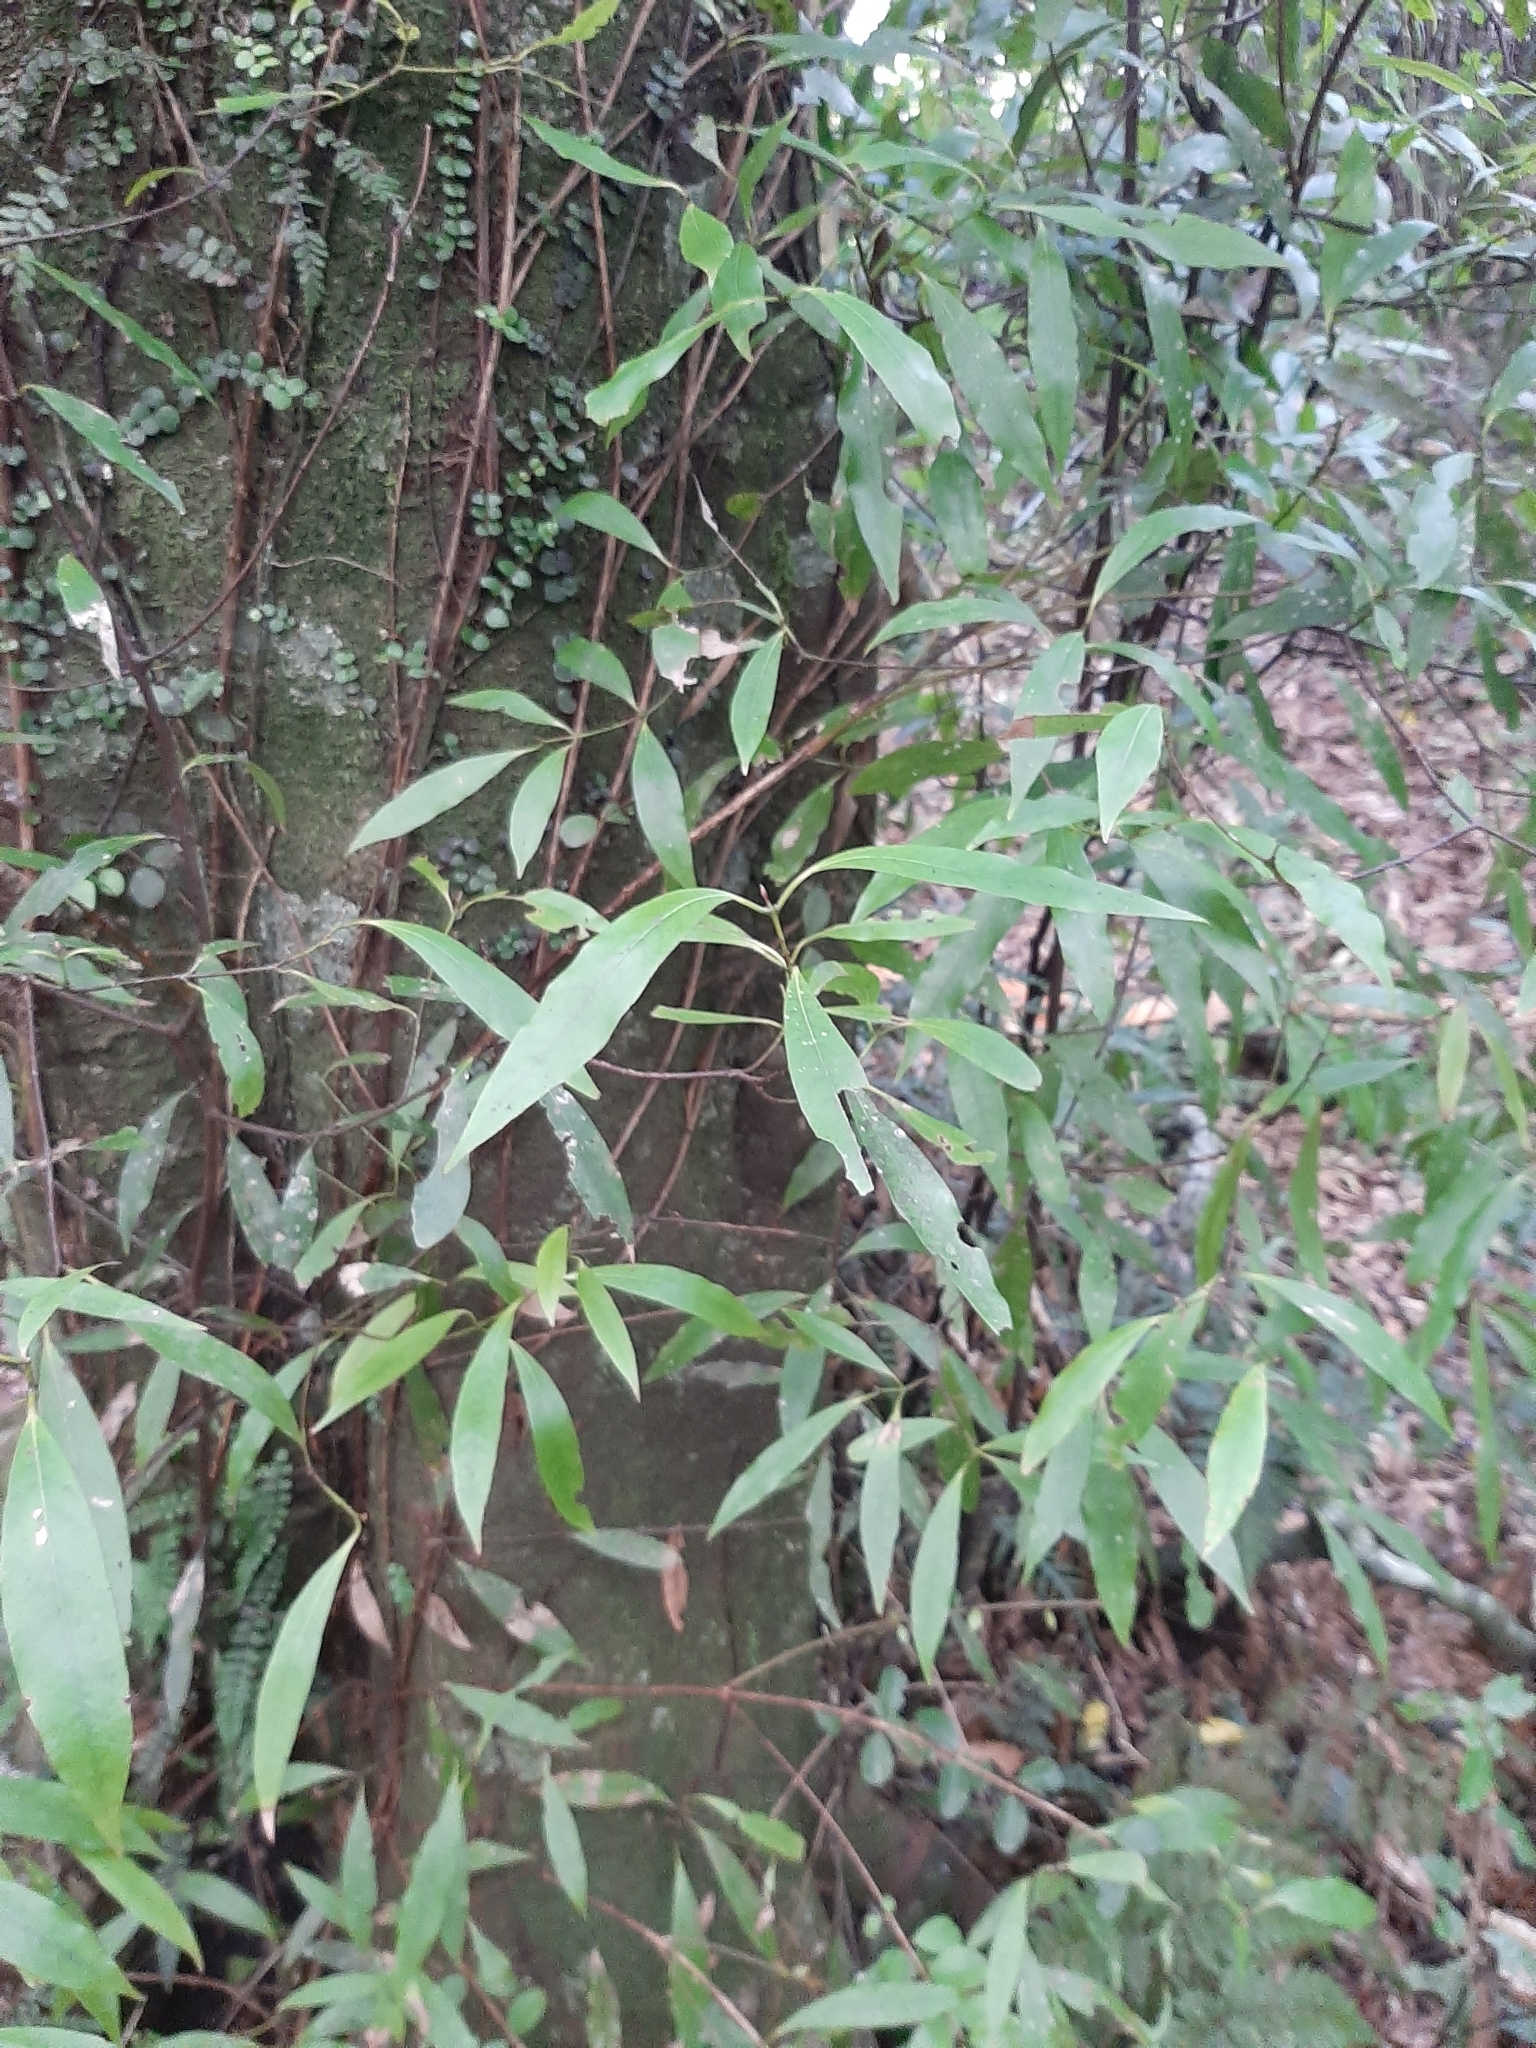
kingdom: Plantae
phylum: Tracheophyta
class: Magnoliopsida
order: Laurales
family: Lauraceae
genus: Beilschmiedia
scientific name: Beilschmiedia tawa
